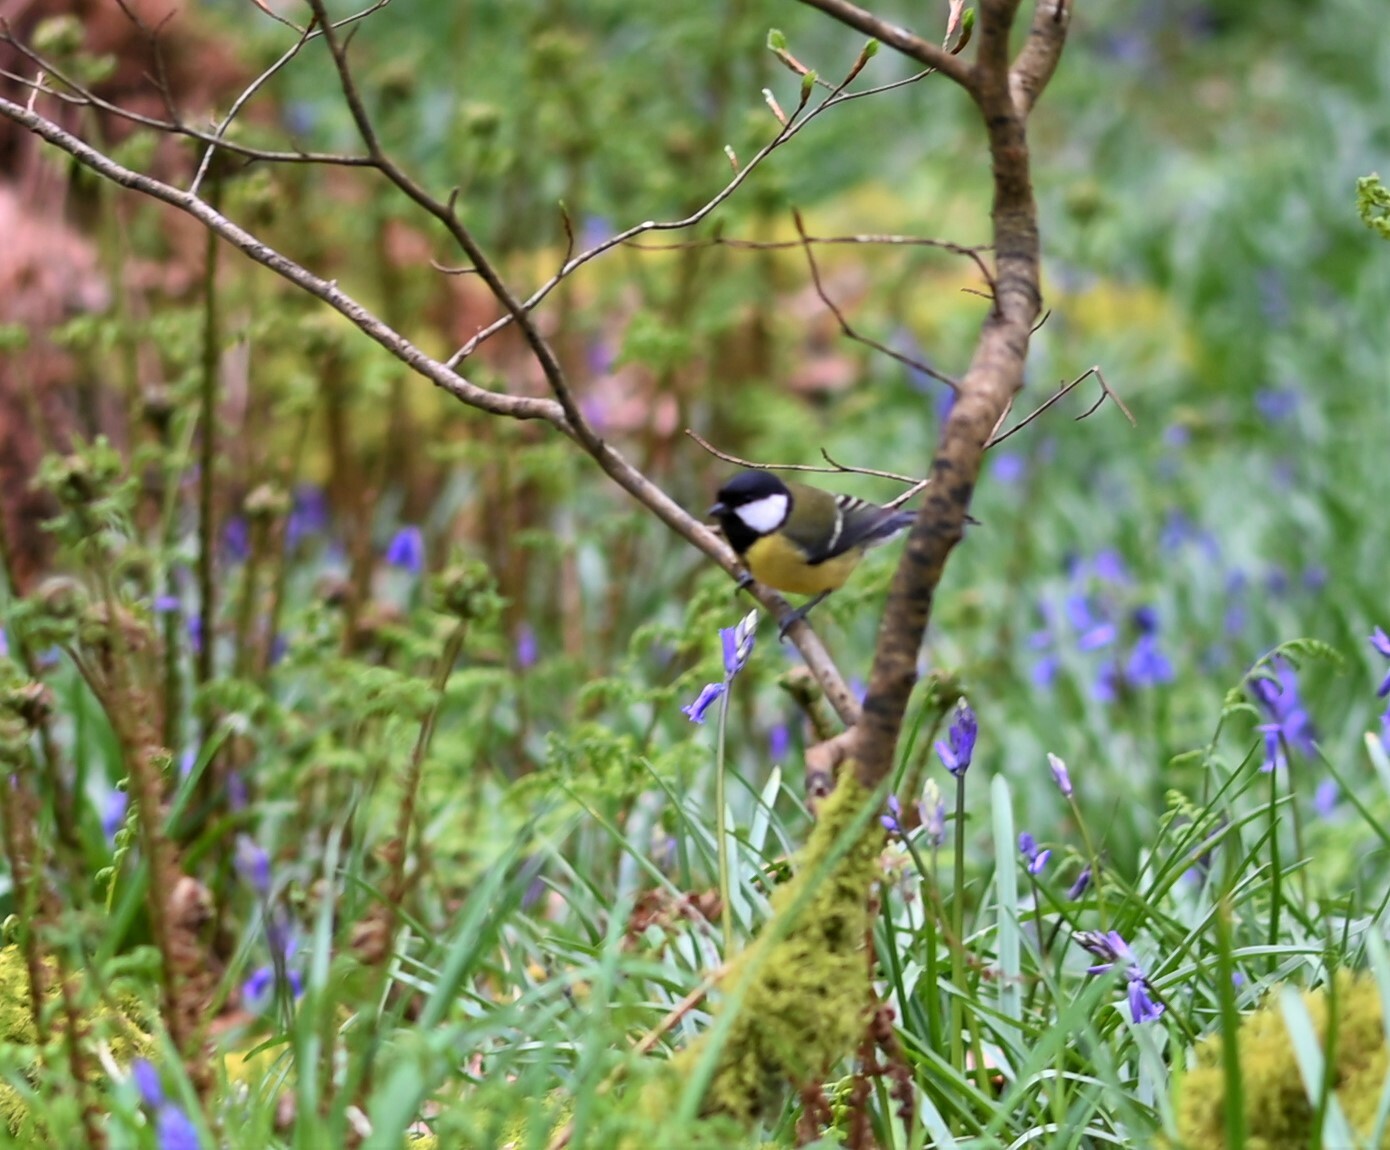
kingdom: Animalia
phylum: Chordata
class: Aves
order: Passeriformes
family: Paridae
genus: Parus
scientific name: Parus major
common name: Great tit
